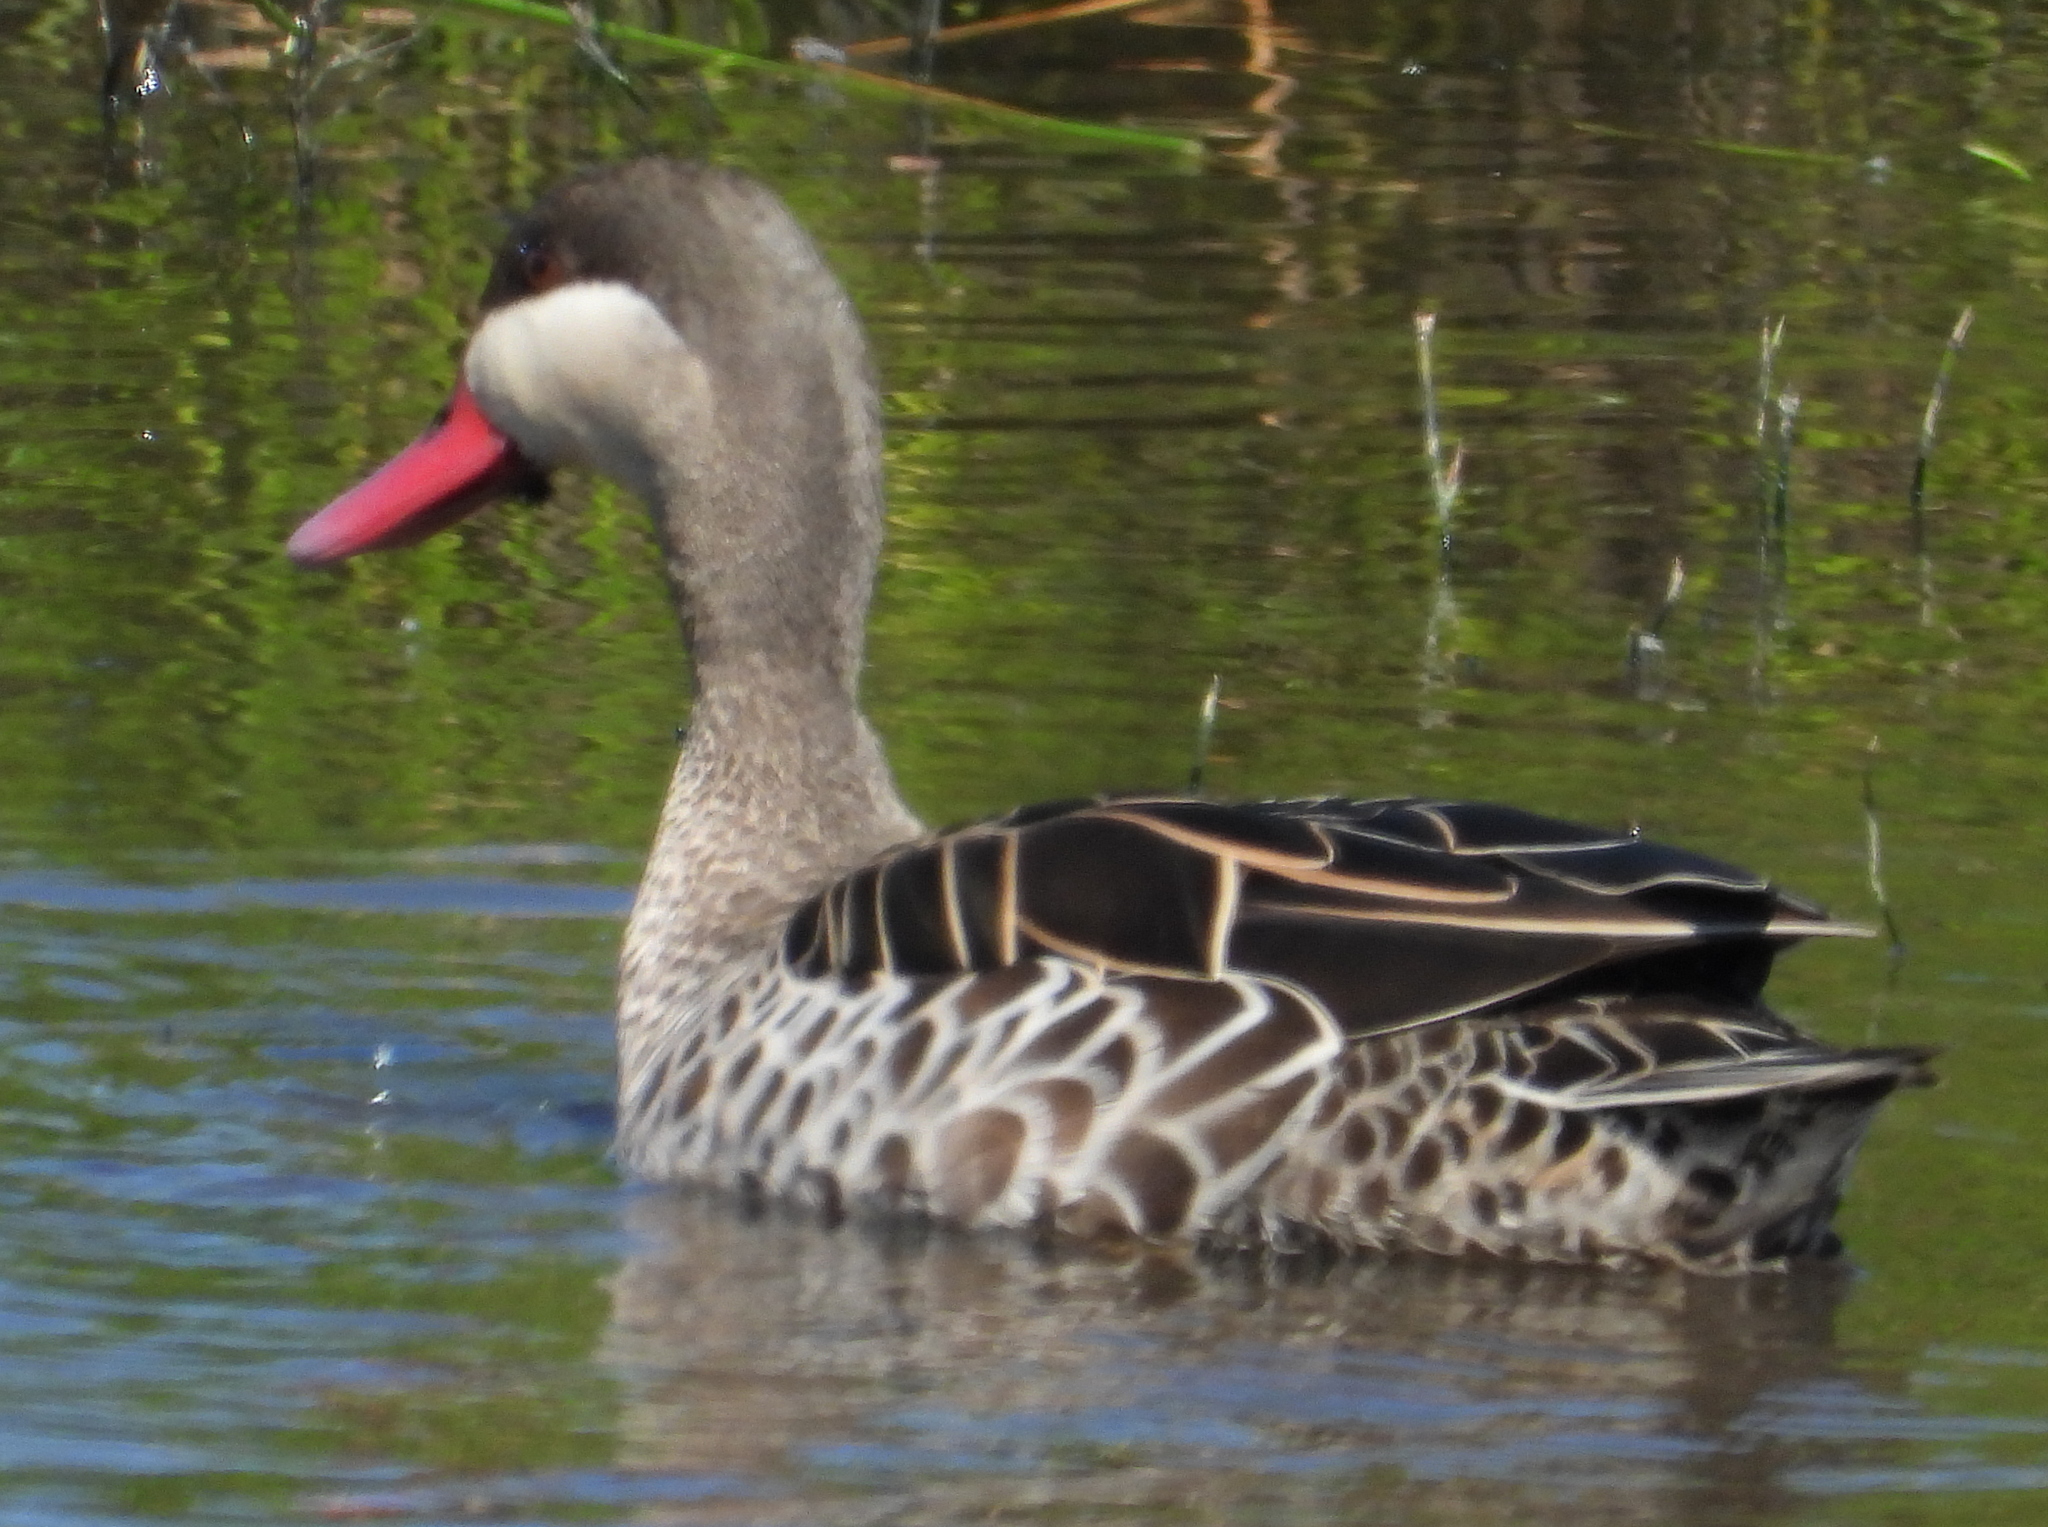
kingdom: Animalia
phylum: Chordata
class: Aves
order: Anseriformes
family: Anatidae
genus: Anas
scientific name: Anas erythrorhyncha
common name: Red-billed teal
